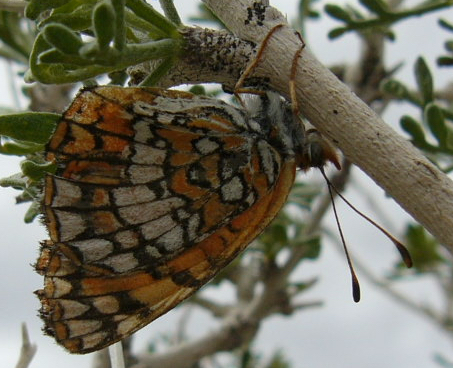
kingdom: Animalia
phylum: Arthropoda
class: Insecta
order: Lepidoptera
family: Nymphalidae
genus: Chlosyne
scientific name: Chlosyne acastus
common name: Sagebrush checkerspot
